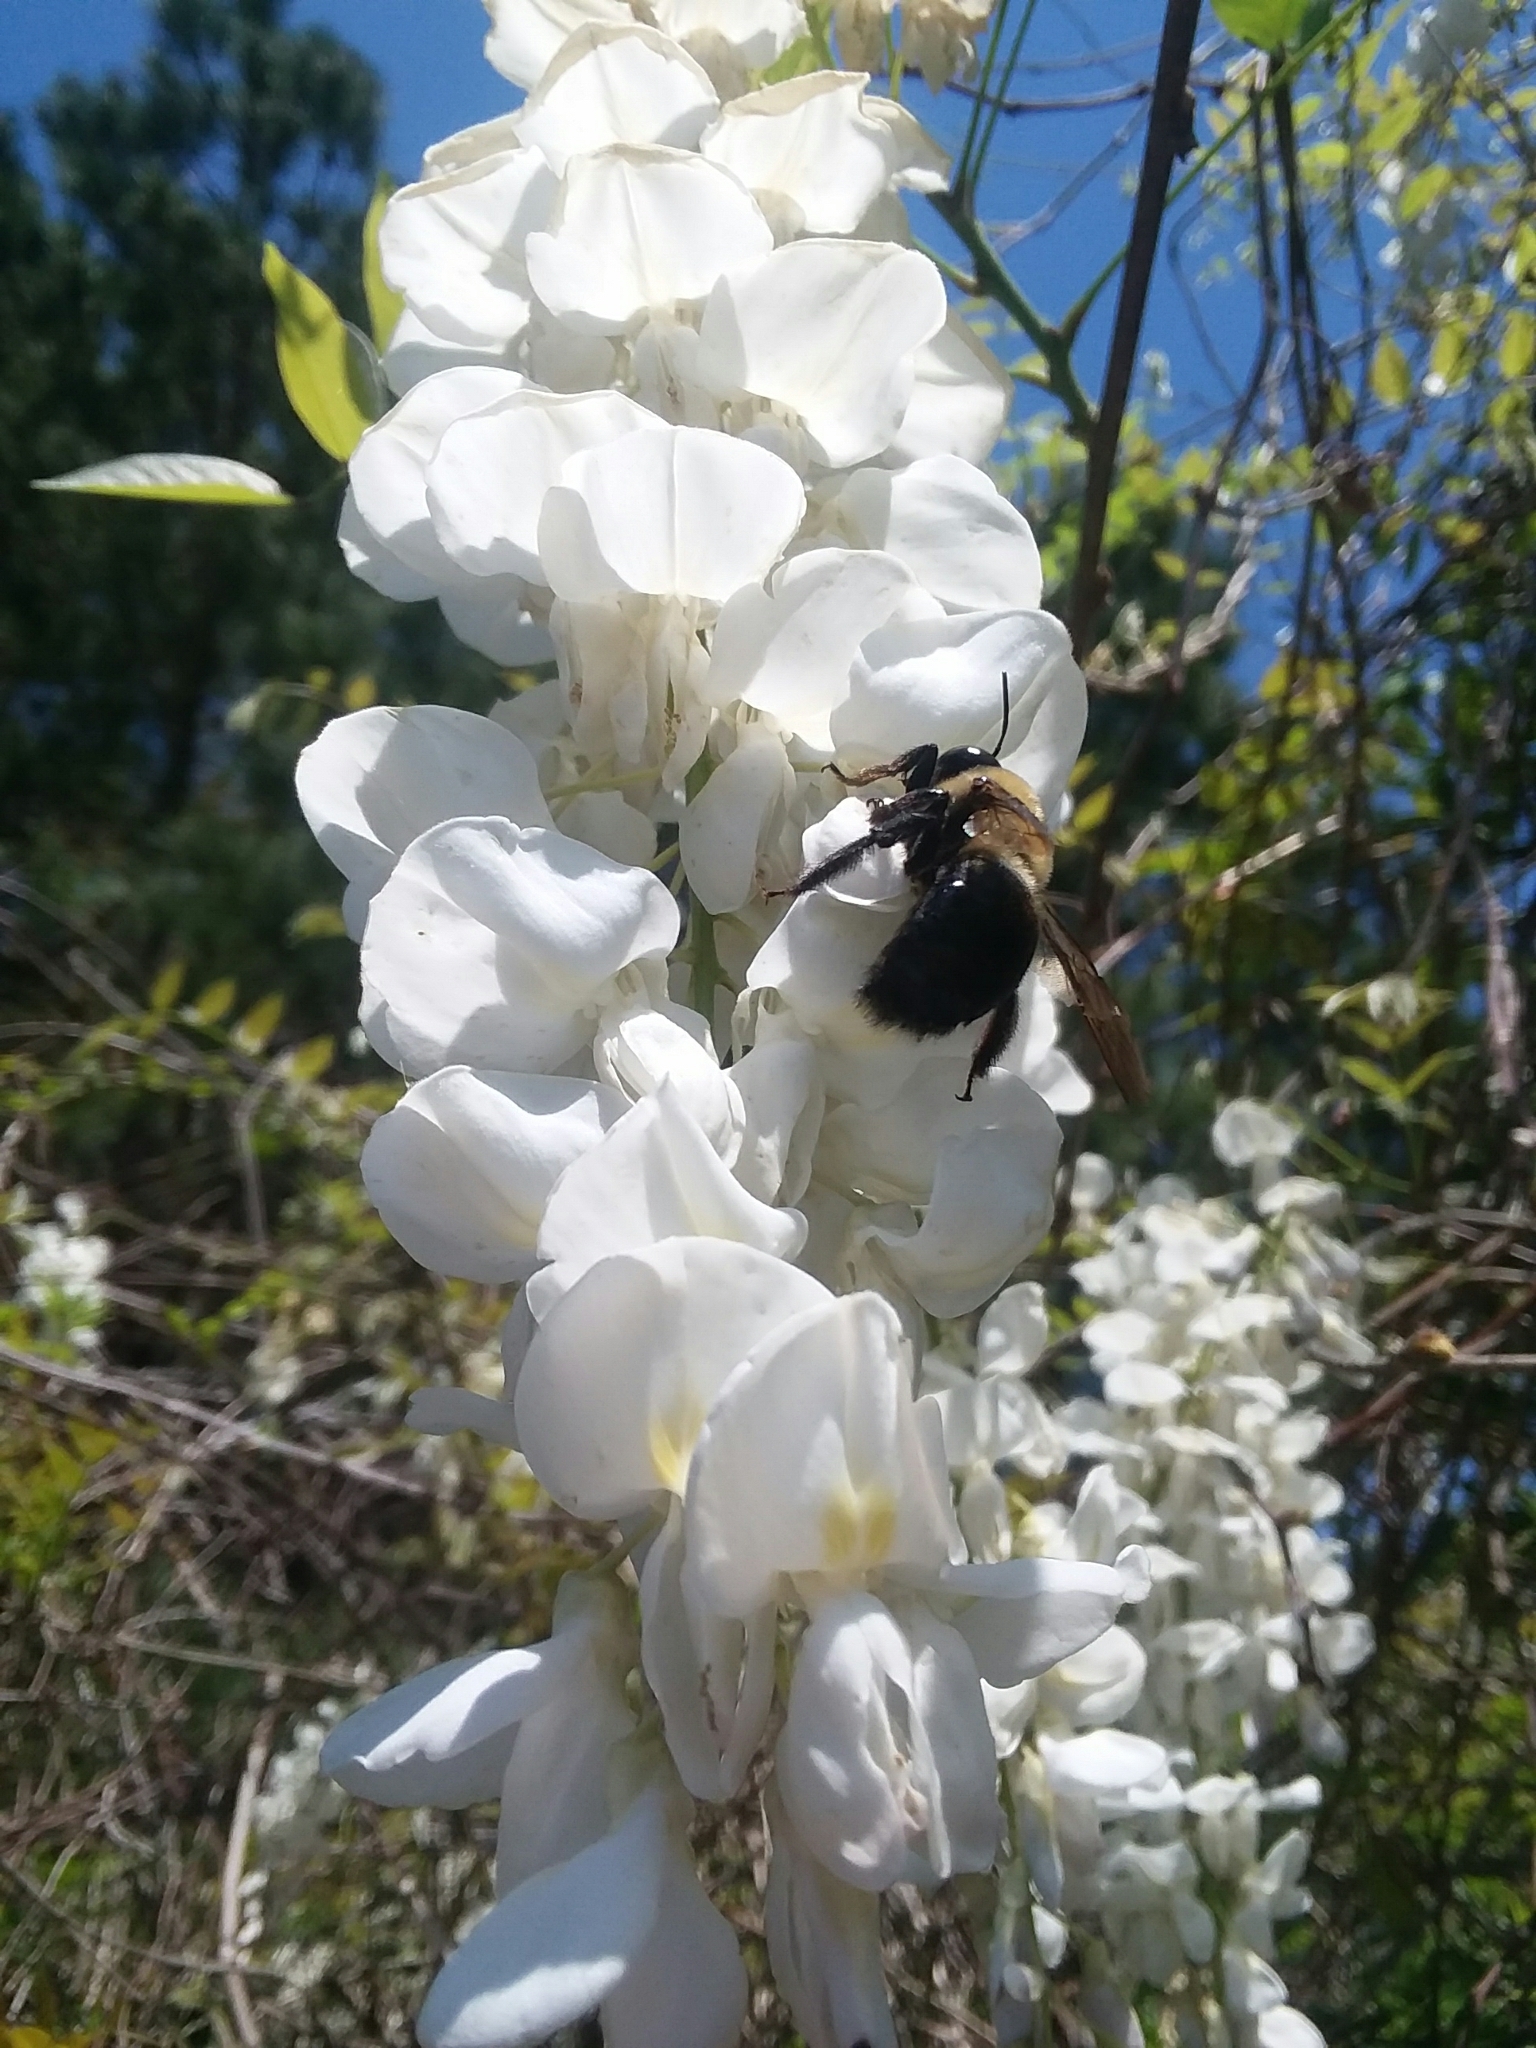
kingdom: Animalia
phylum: Arthropoda
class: Insecta
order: Hymenoptera
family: Apidae
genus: Xylocopa
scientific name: Xylocopa virginica
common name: Carpenter bee
